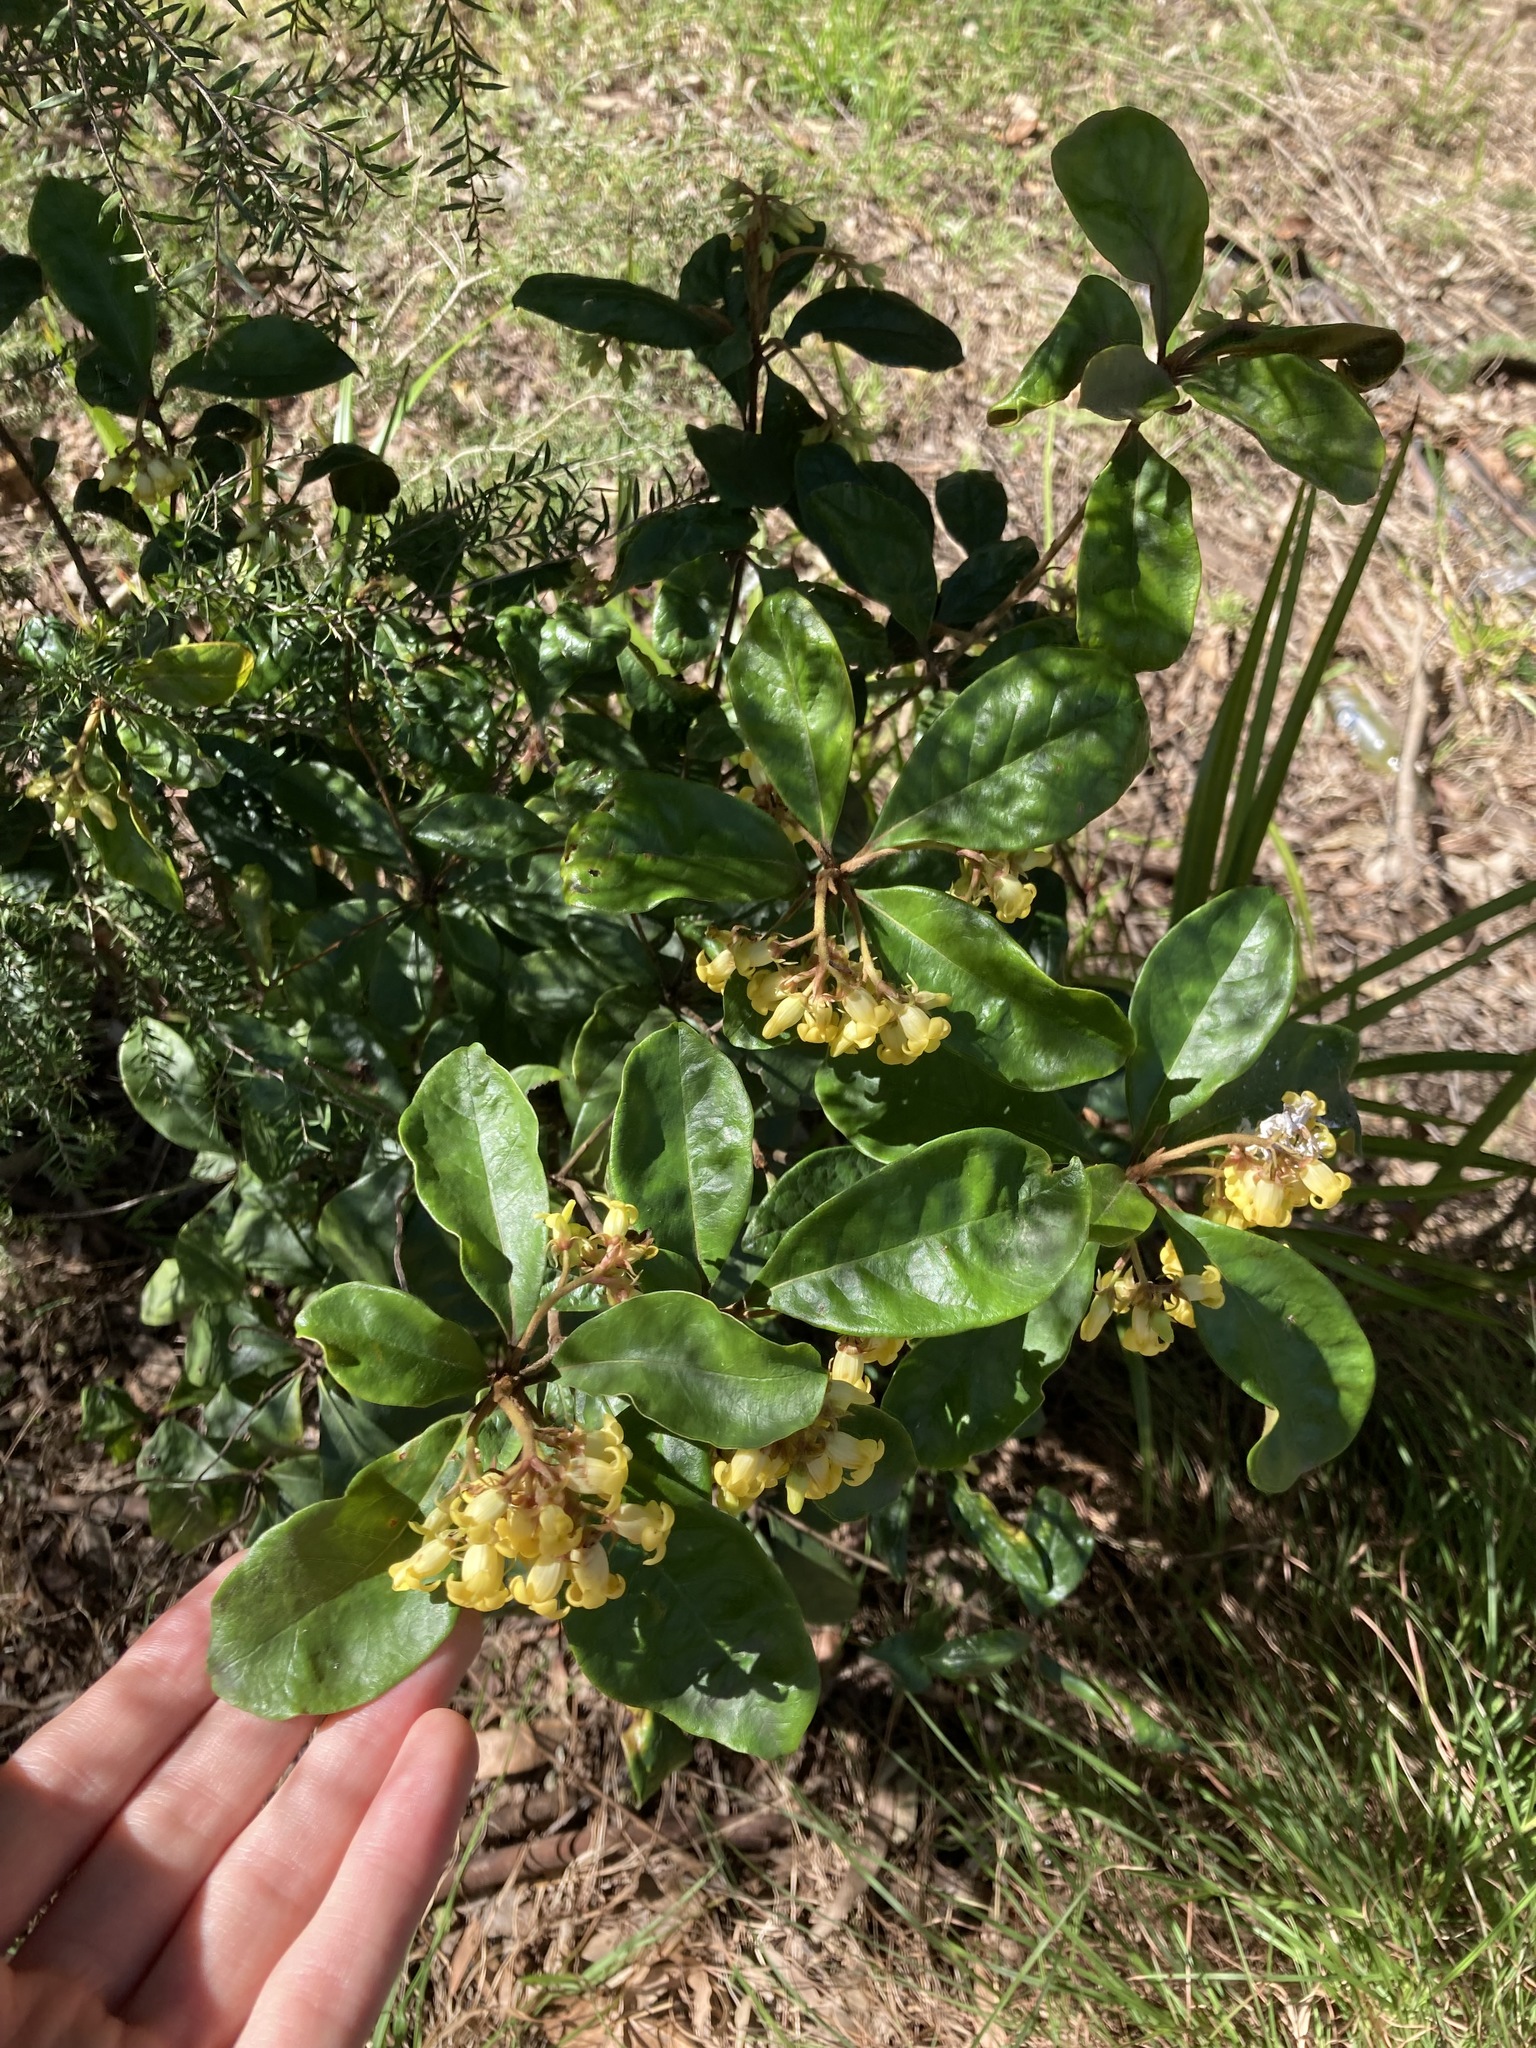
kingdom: Plantae
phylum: Tracheophyta
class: Magnoliopsida
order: Apiales
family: Pittosporaceae
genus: Pittosporum
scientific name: Pittosporum revolutum
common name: Brisbane-laurel
